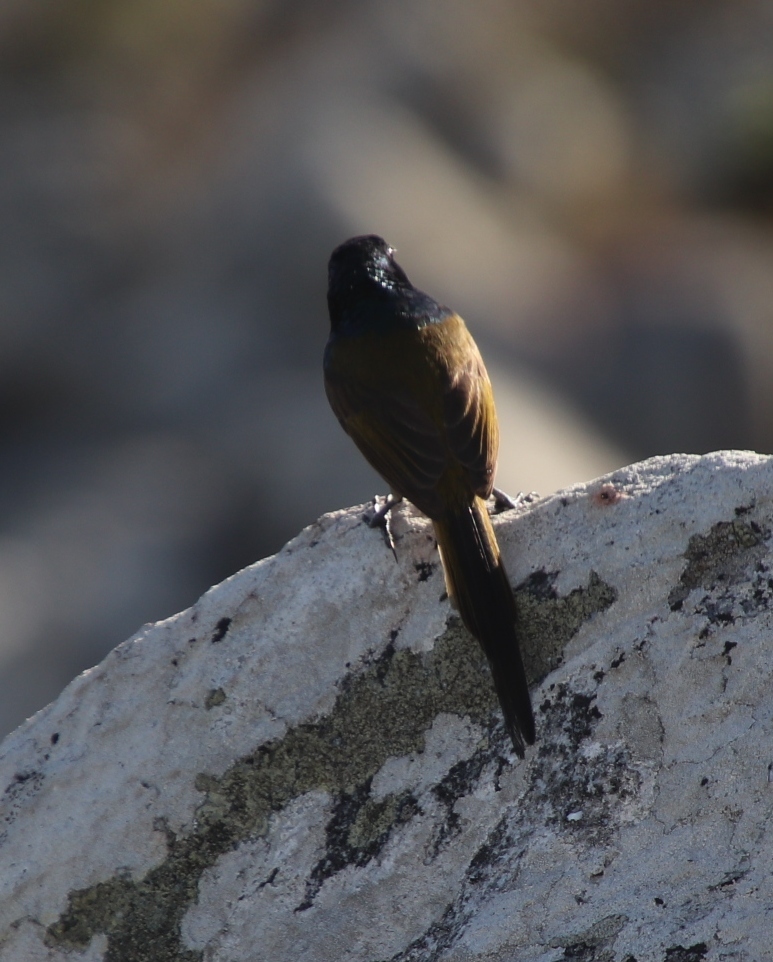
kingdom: Animalia
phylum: Chordata
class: Aves
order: Passeriformes
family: Nectariniidae
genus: Anthobaphes
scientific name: Anthobaphes violacea
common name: Orange-breasted sunbird
